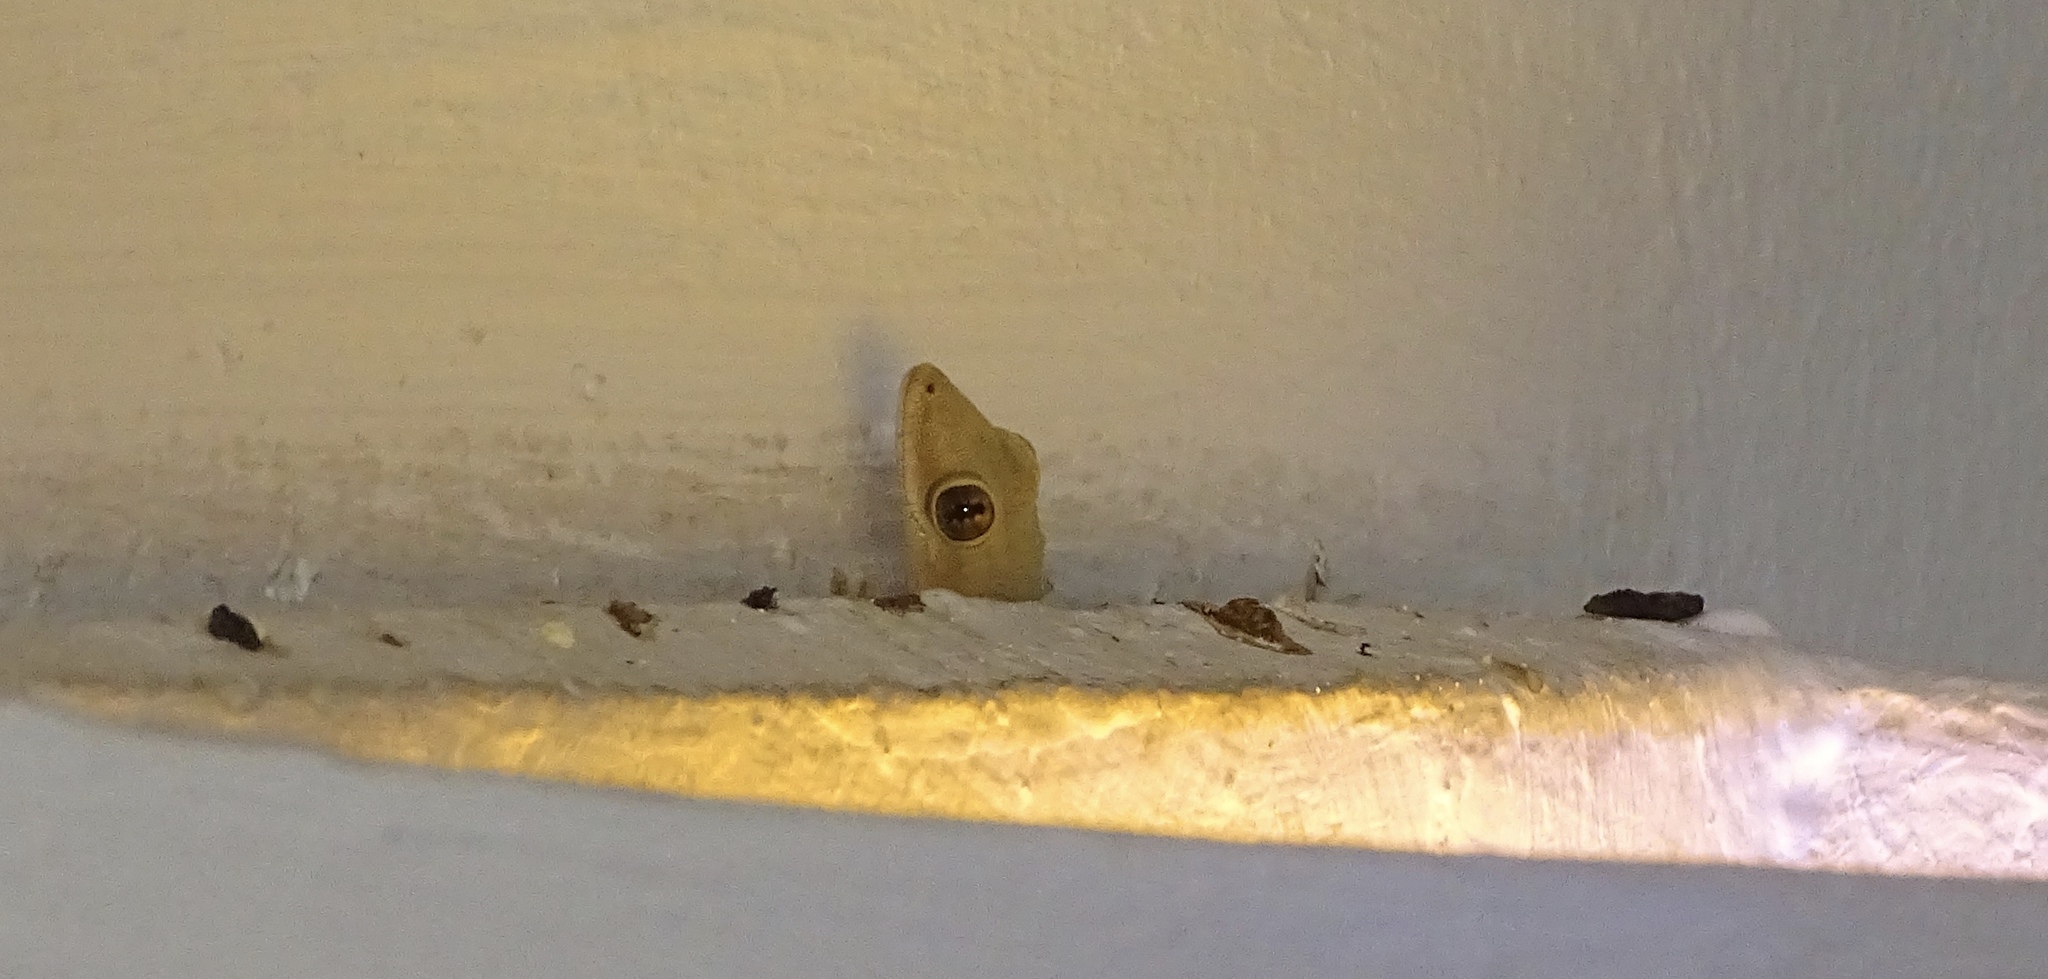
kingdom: Animalia
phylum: Chordata
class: Squamata
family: Gekkonidae
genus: Hemidactylus
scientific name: Hemidactylus platyurus
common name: Flat-tailed house gecko
